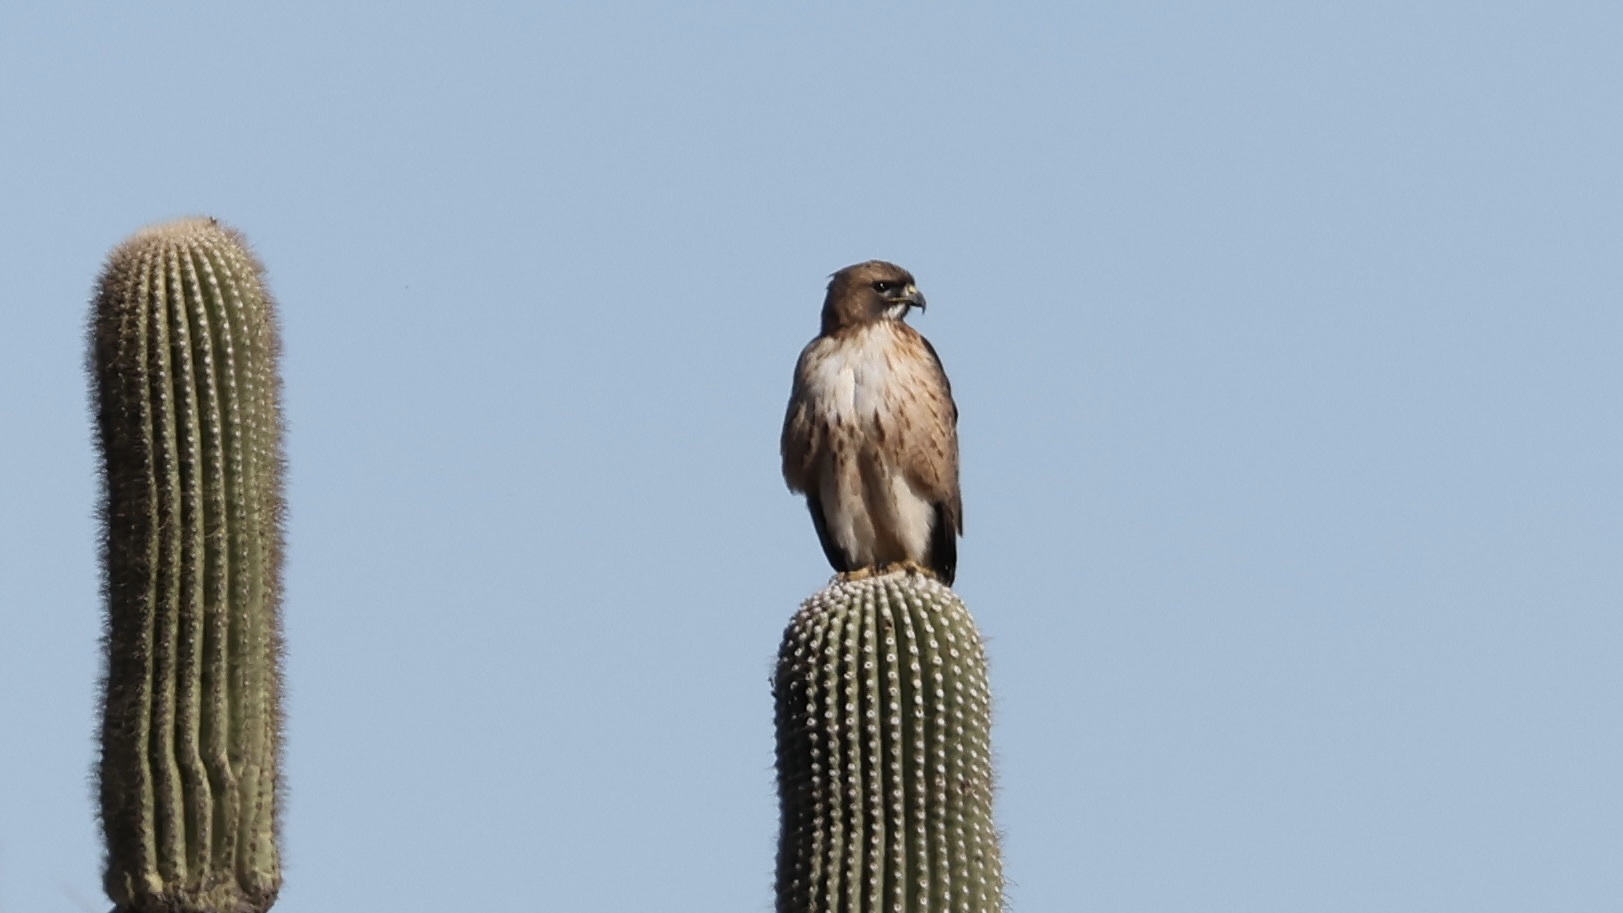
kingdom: Animalia
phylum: Chordata
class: Aves
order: Accipitriformes
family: Accipitridae
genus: Buteo
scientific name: Buteo jamaicensis
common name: Red-tailed hawk
